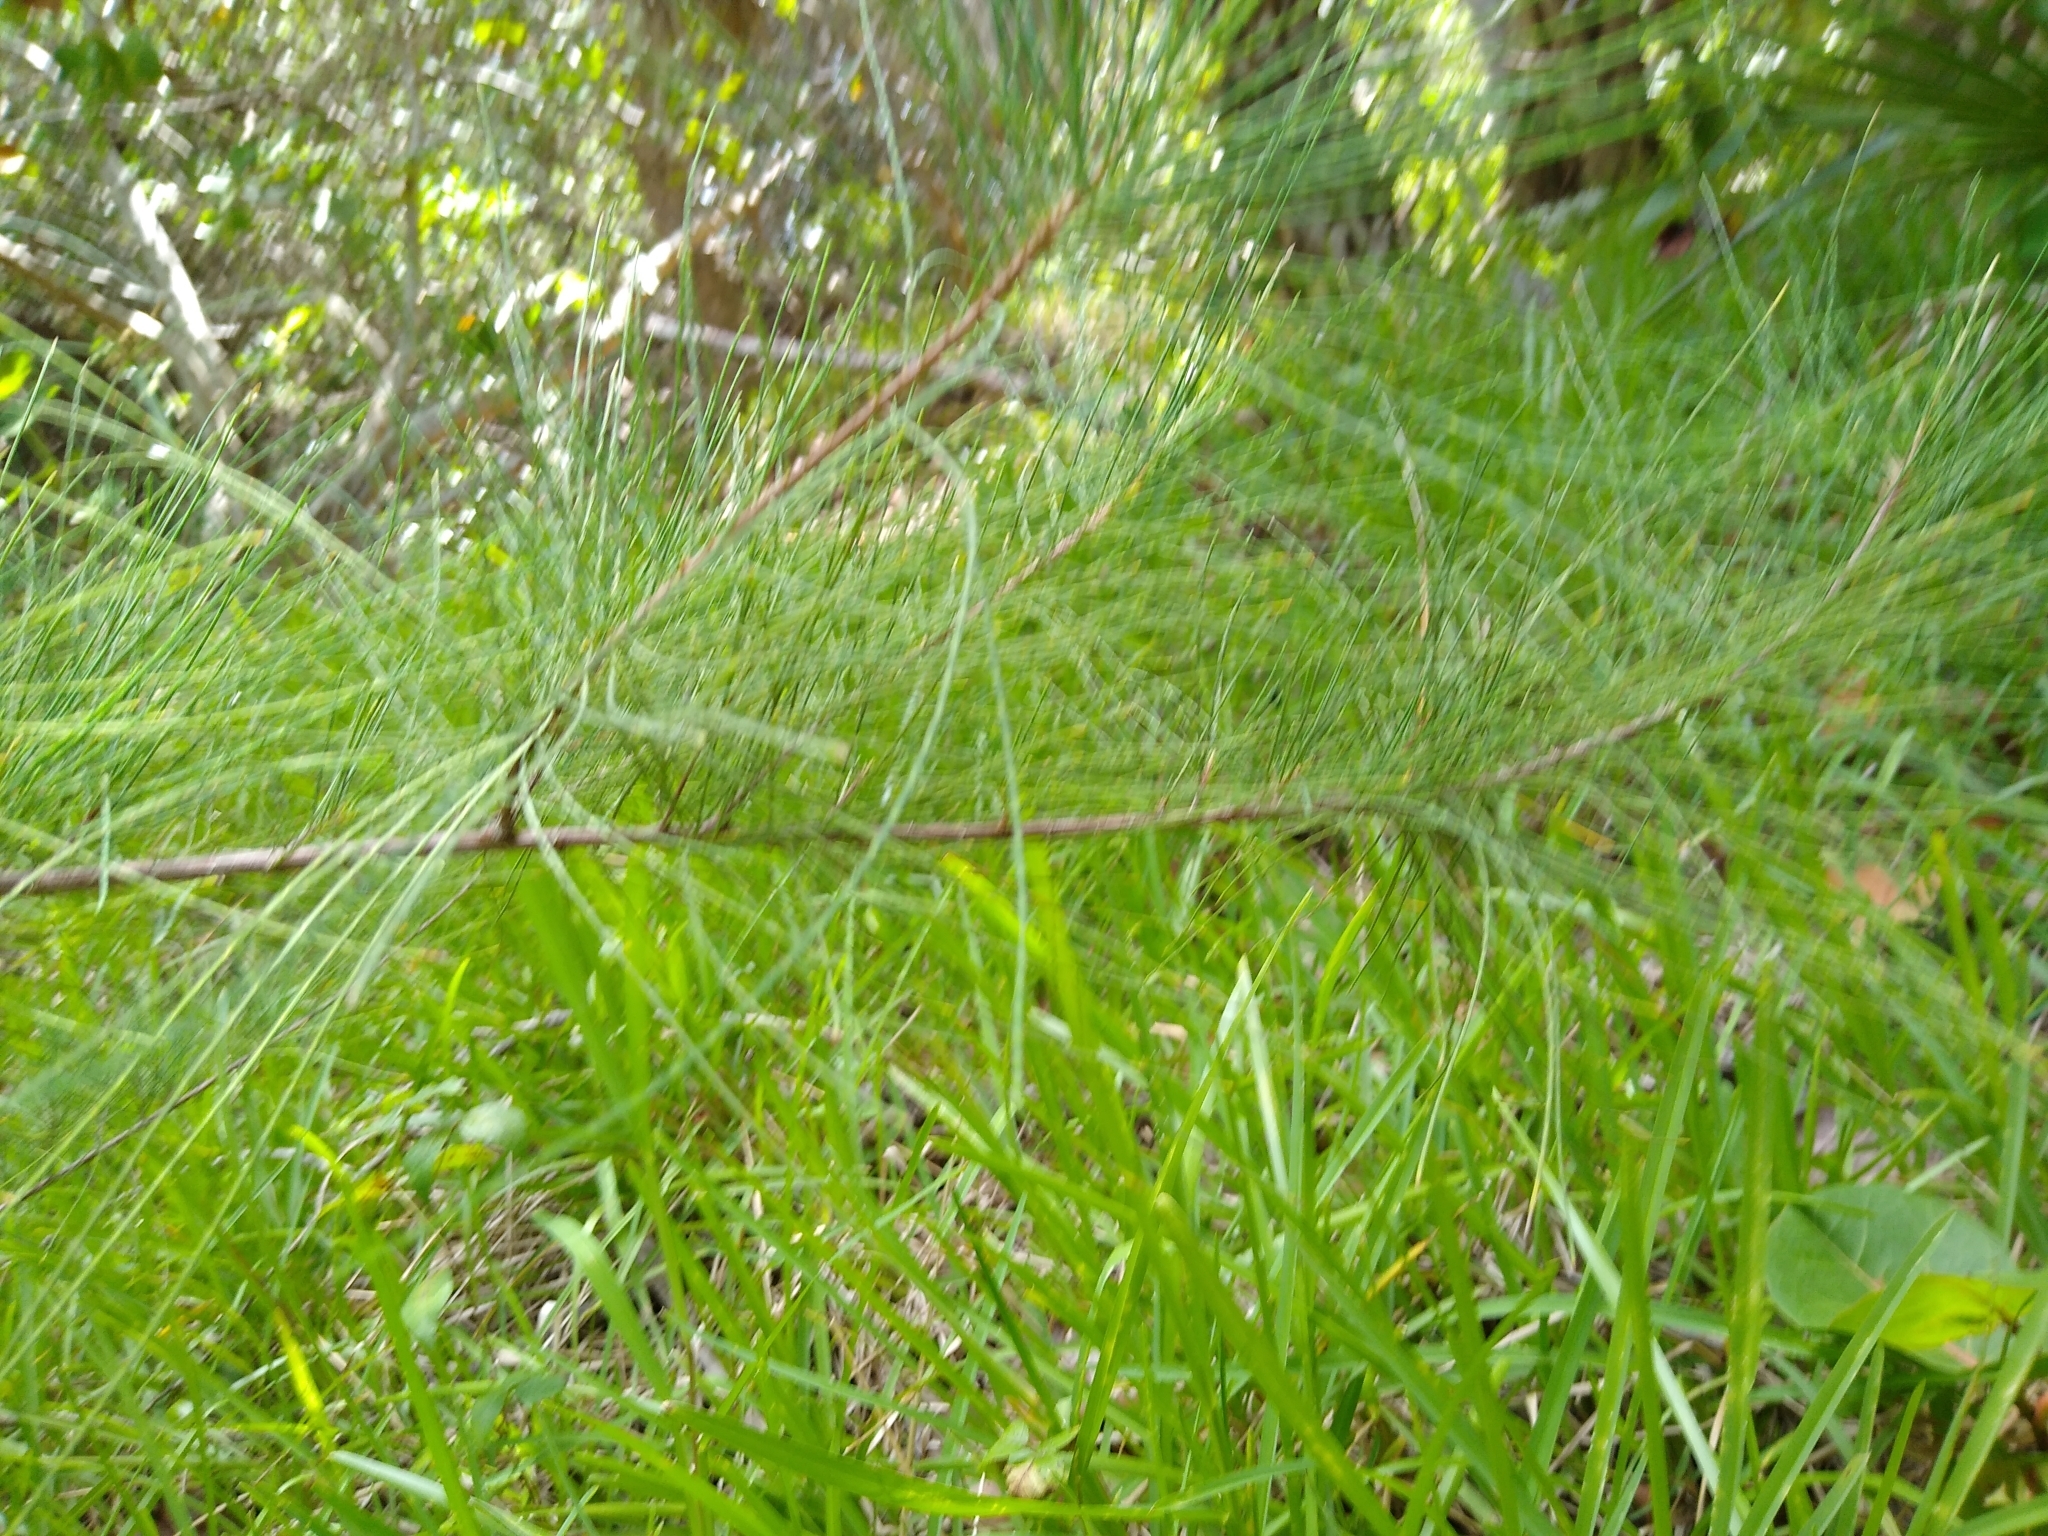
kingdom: Plantae
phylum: Tracheophyta
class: Magnoliopsida
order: Fagales
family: Casuarinaceae
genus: Casuarina
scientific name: Casuarina equisetifolia
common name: Beach sheoak
